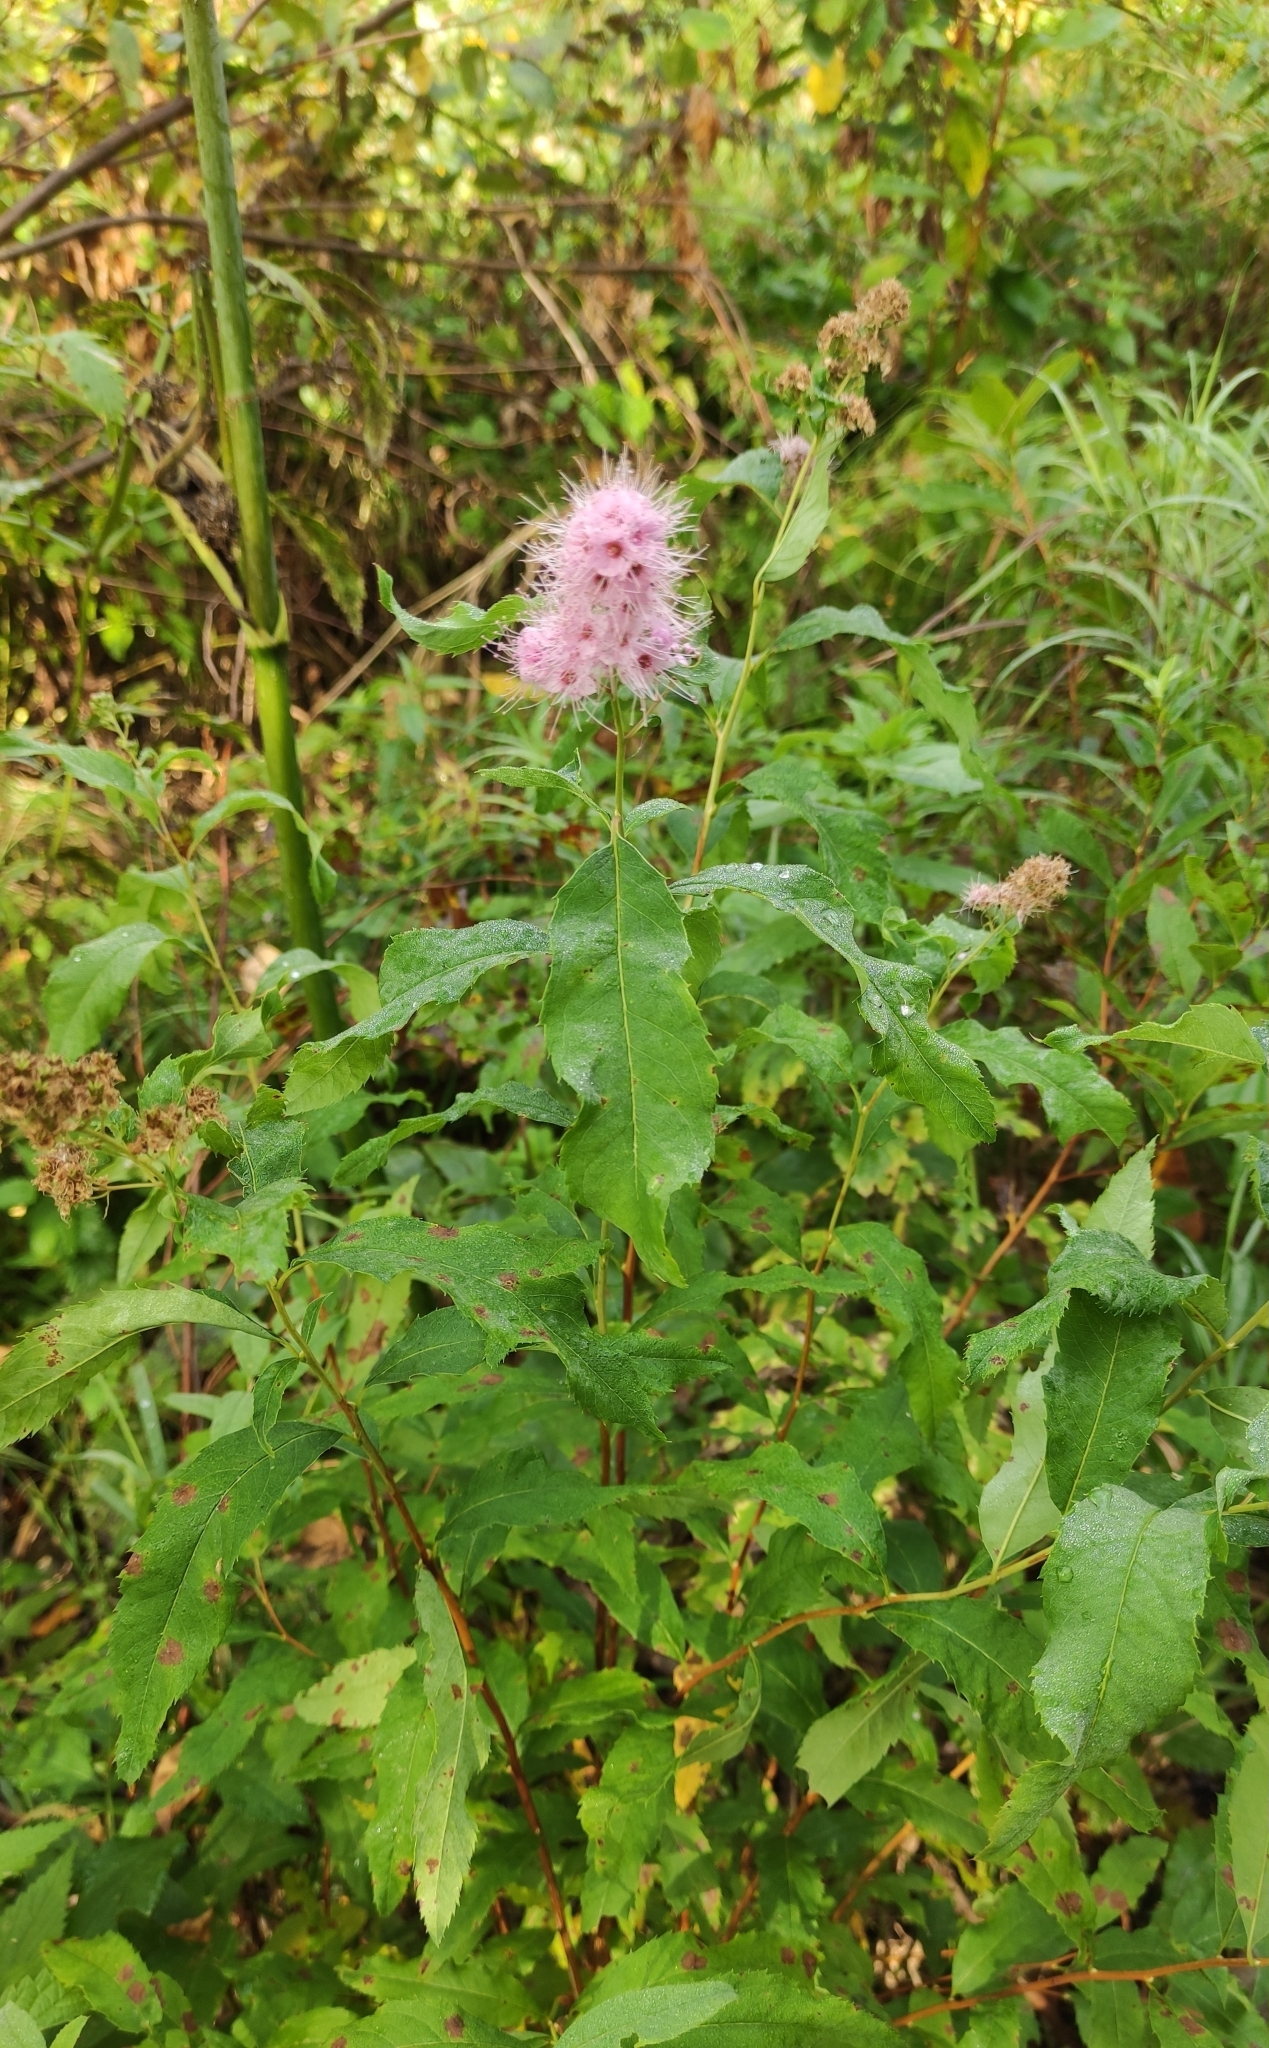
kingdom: Plantae
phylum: Tracheophyta
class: Magnoliopsida
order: Rosales
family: Rosaceae
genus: Spiraea
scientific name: Spiraea salicifolia
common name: Bridewort
